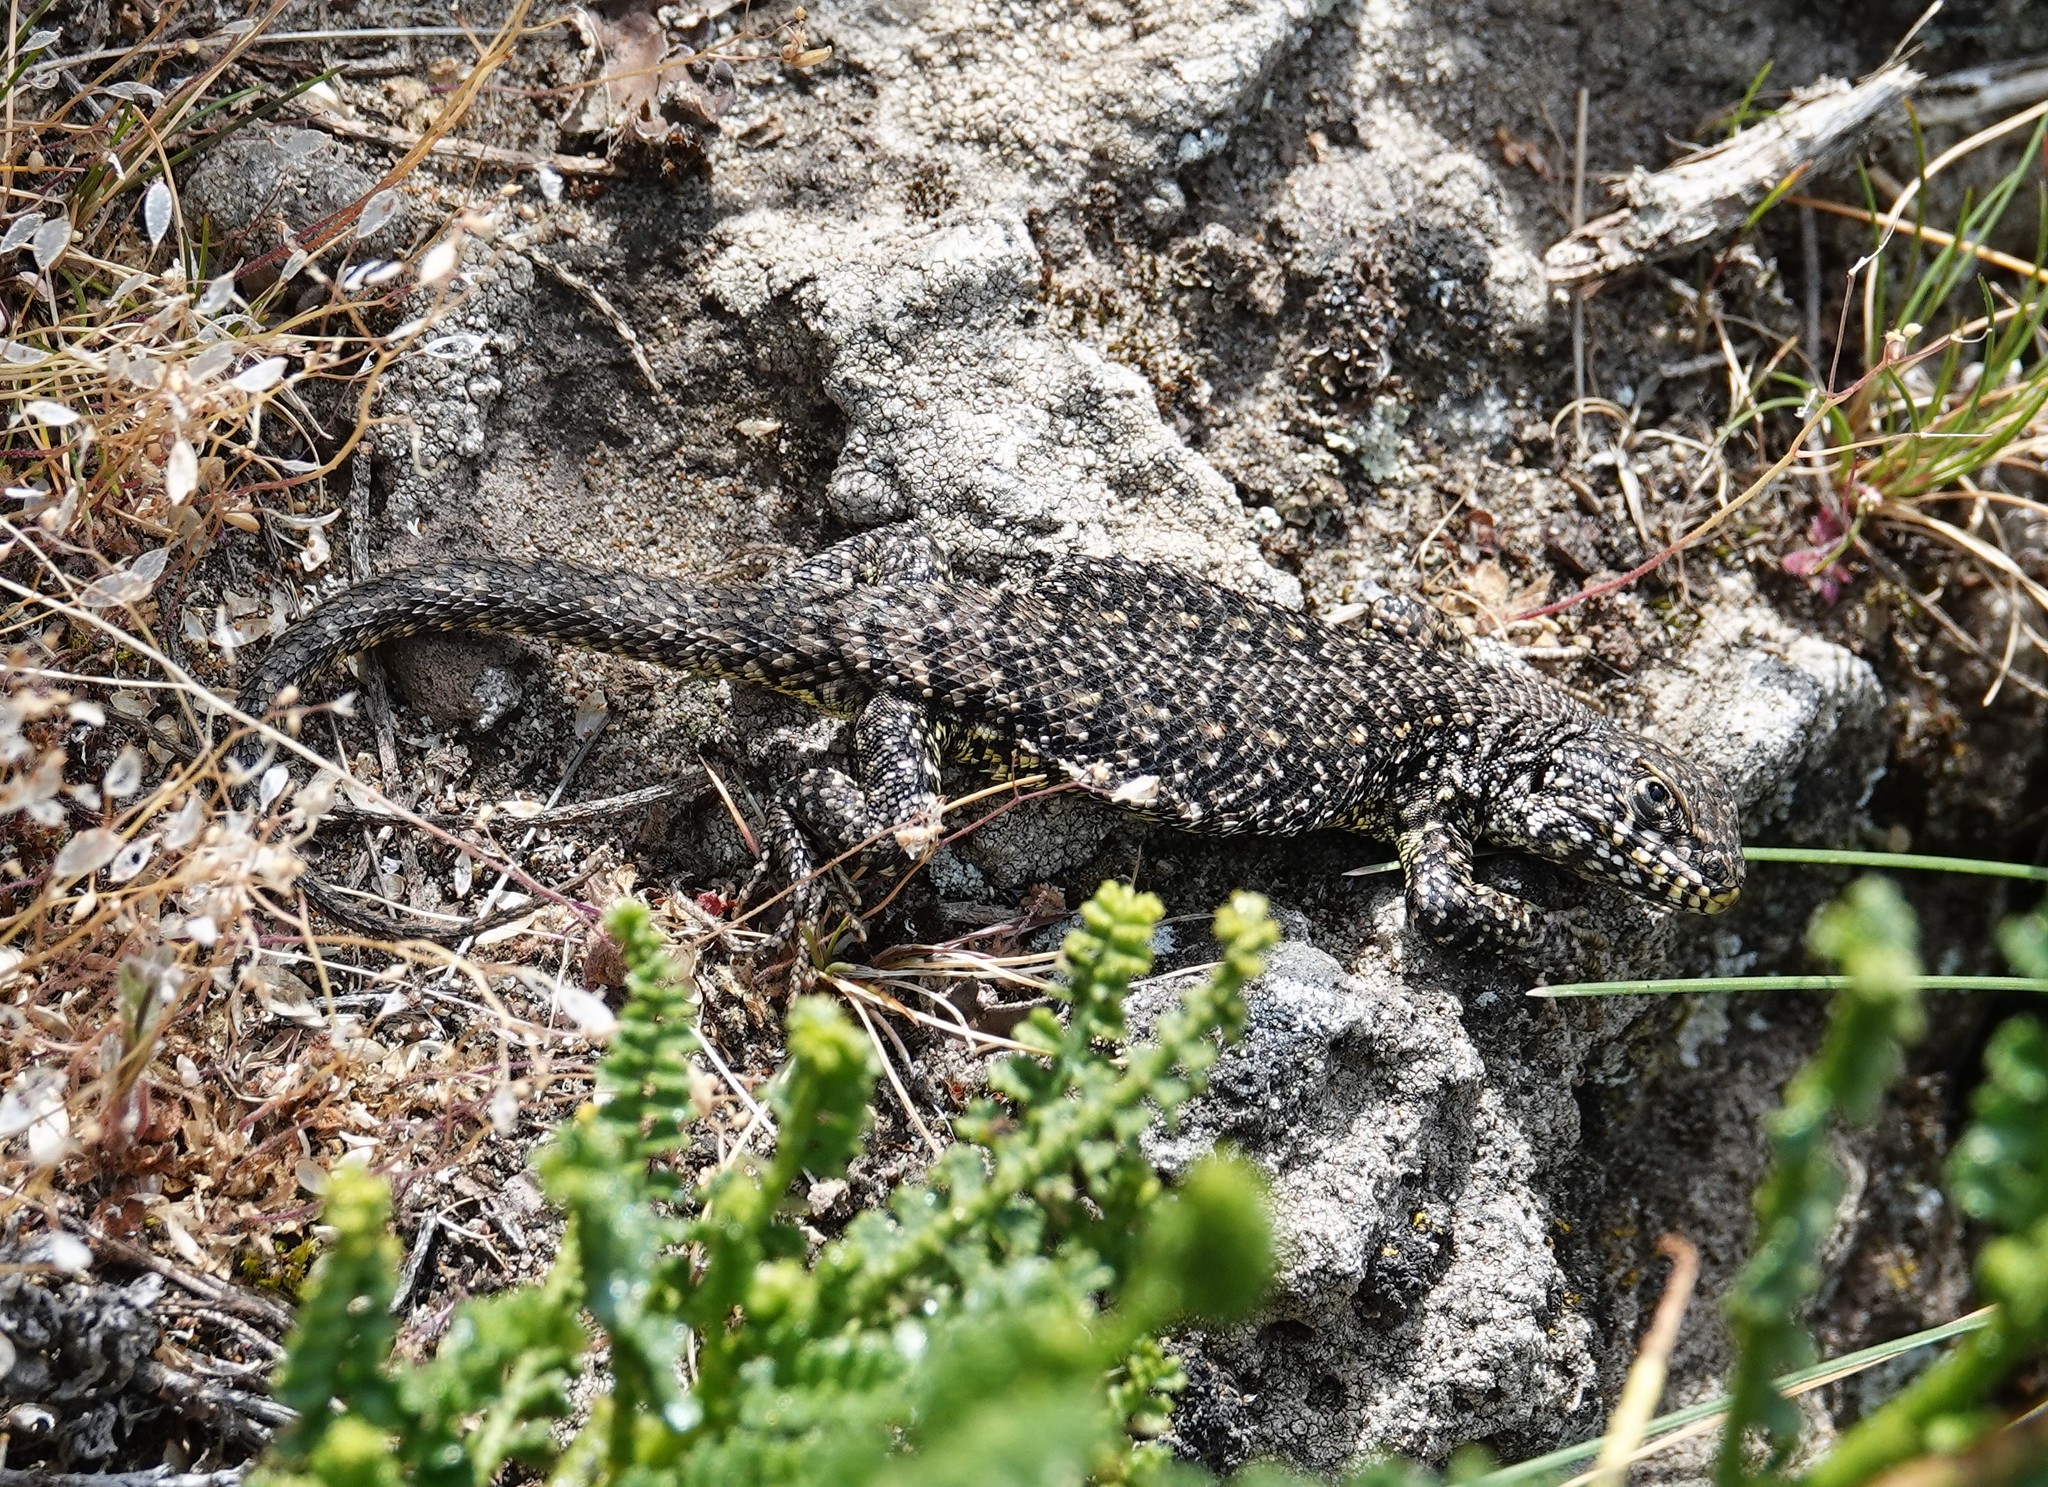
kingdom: Animalia
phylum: Chordata
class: Squamata
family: Liolaemidae
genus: Liolaemus
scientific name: Liolaemus sarmientoi
